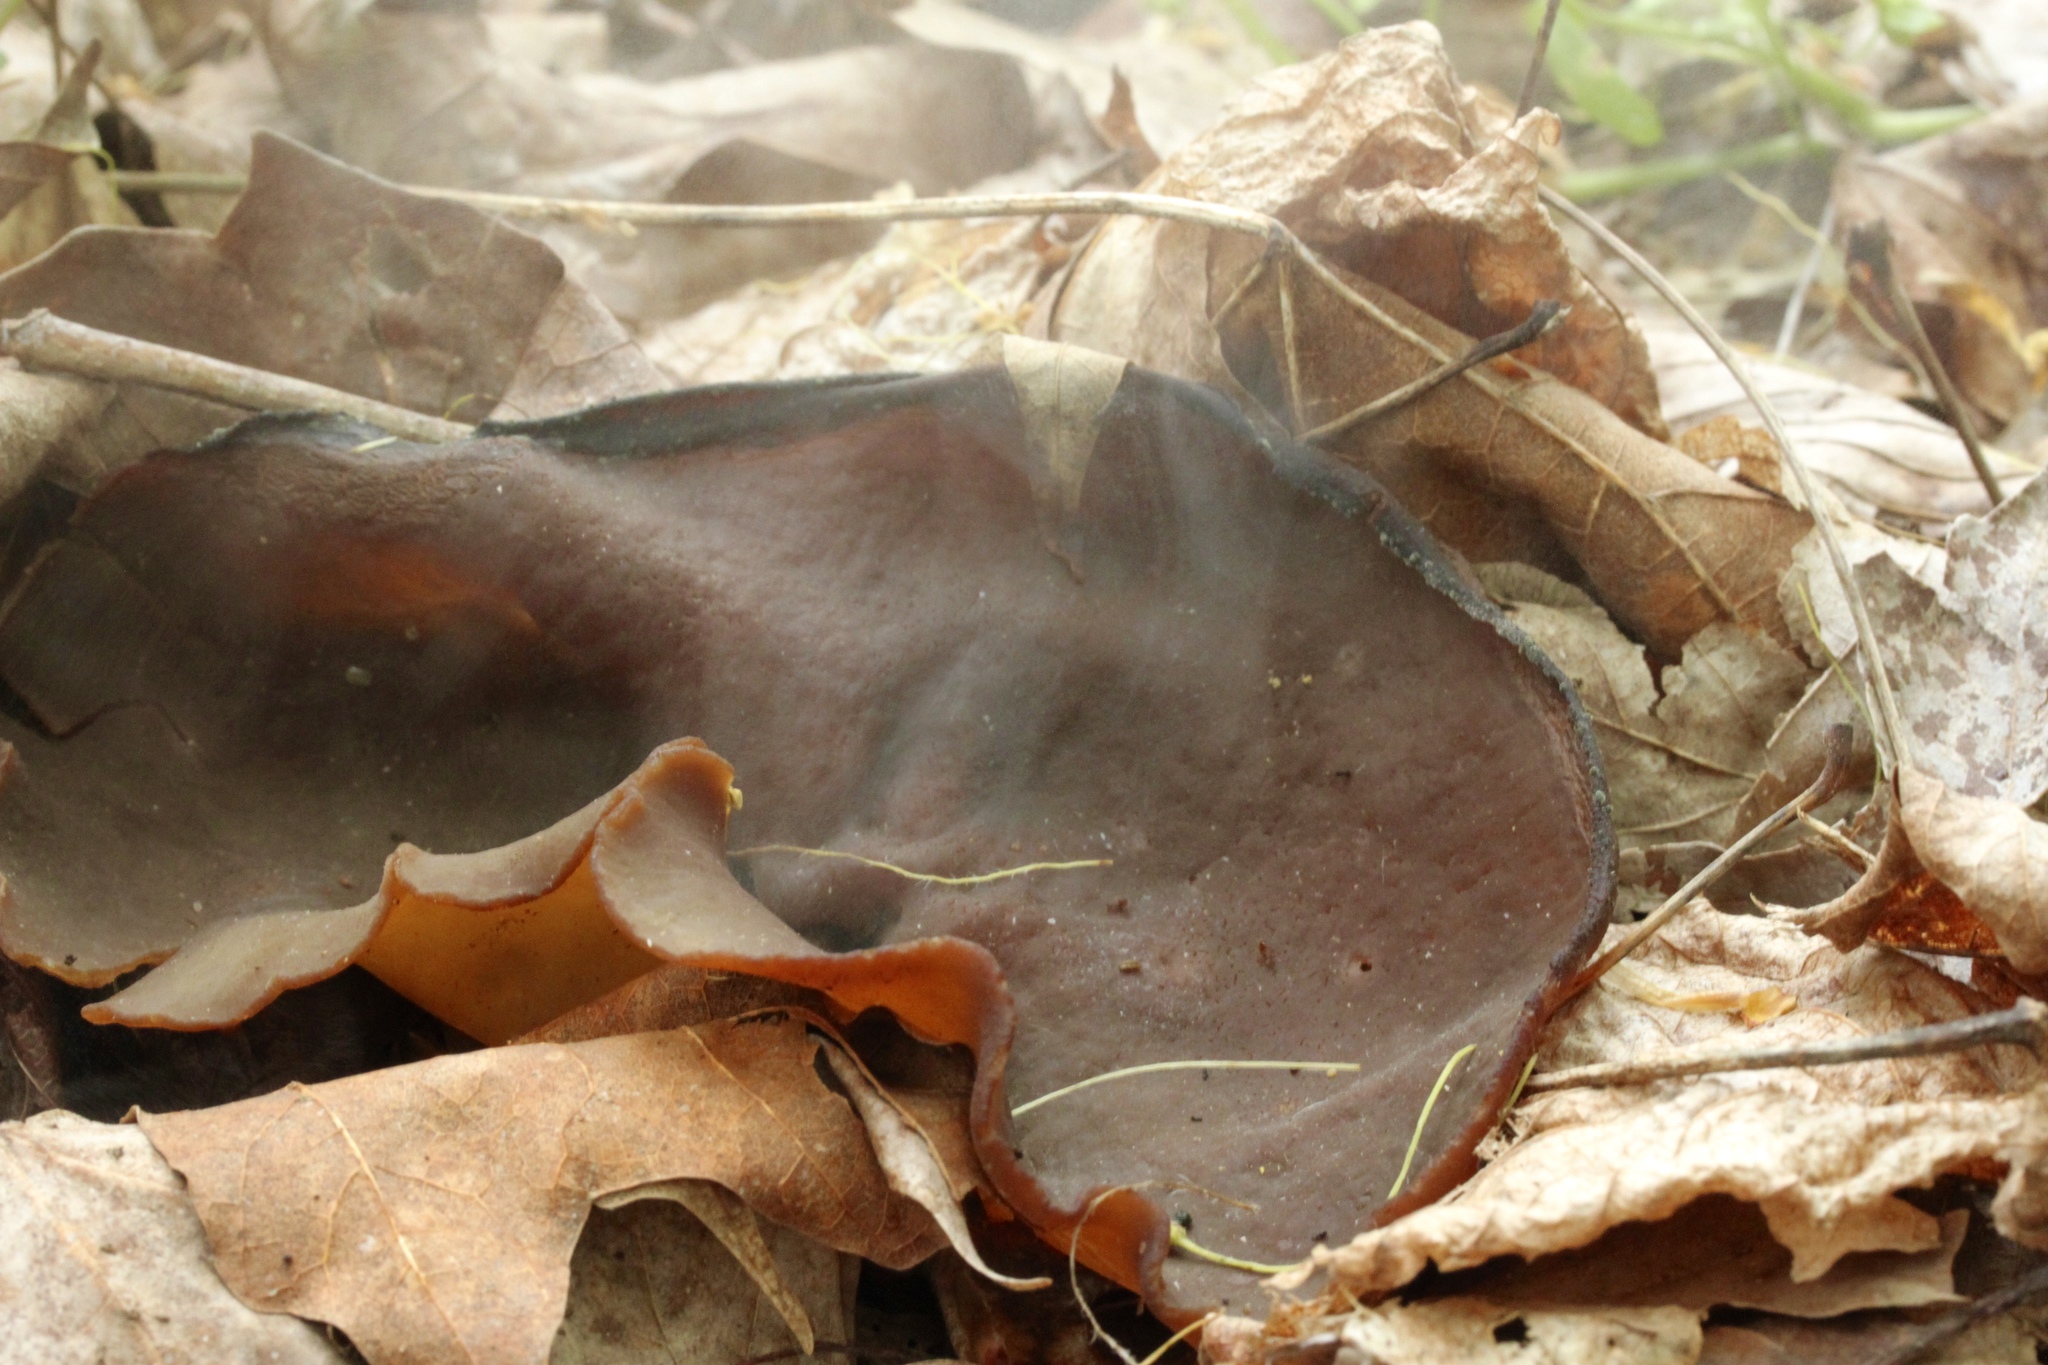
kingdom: Fungi
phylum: Ascomycota
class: Pezizomycetes
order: Pezizales
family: Pezizaceae
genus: Phylloscypha
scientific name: Phylloscypha phyllogena
